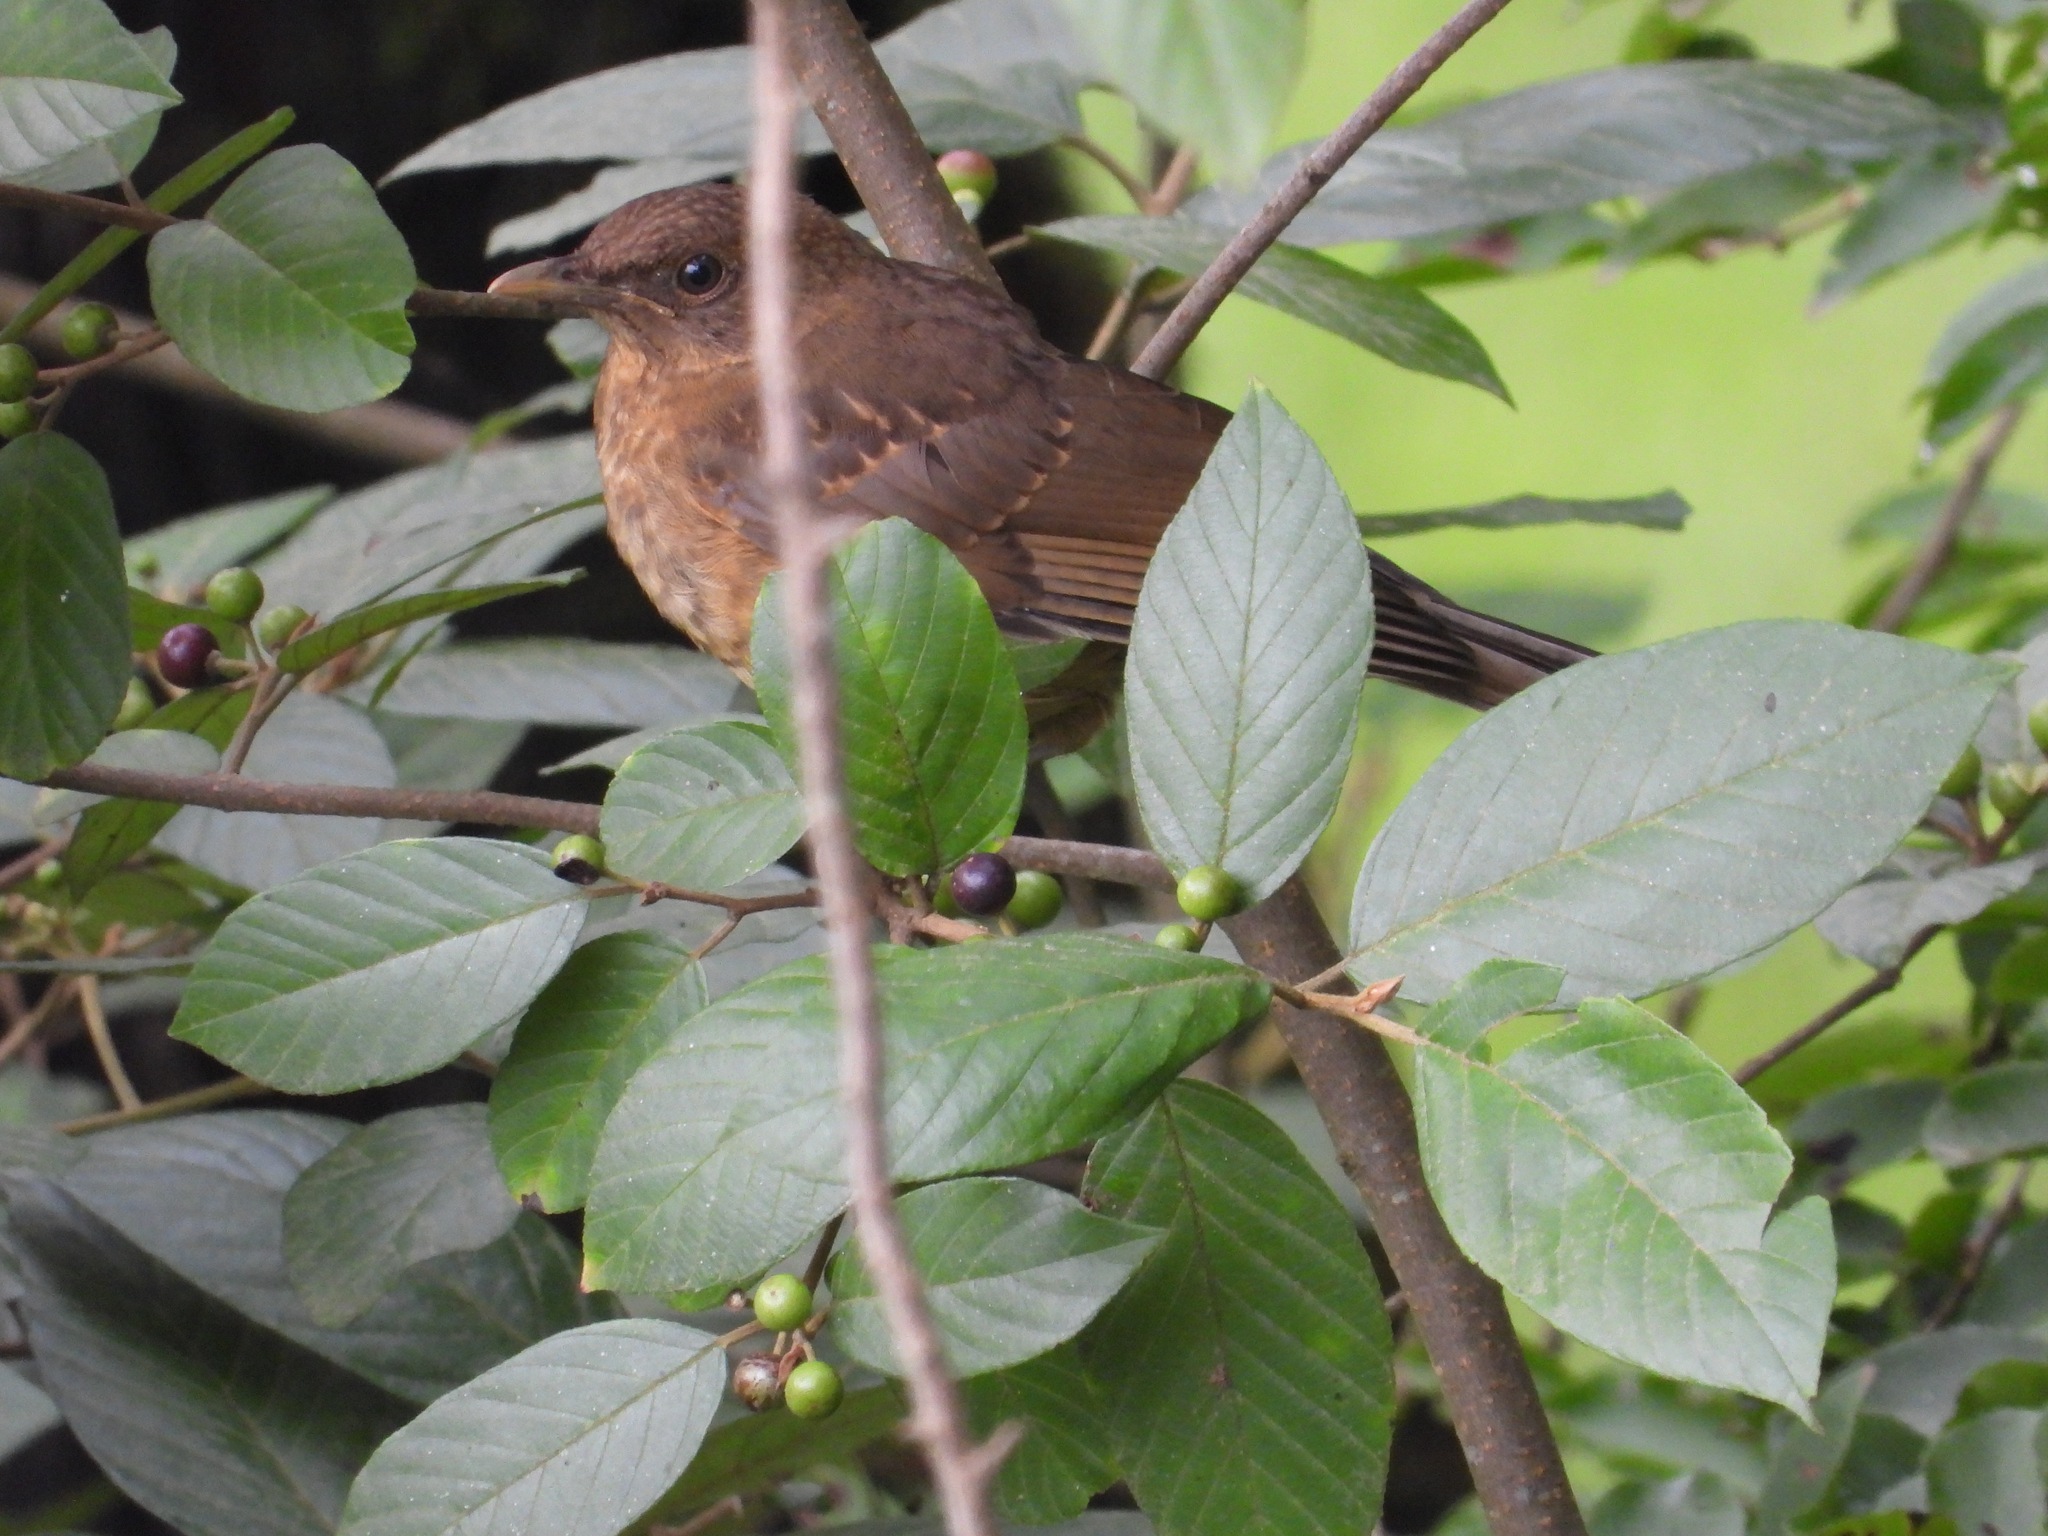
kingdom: Animalia
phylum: Chordata
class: Aves
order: Passeriformes
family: Turdidae
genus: Turdus
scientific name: Turdus grayi
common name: Clay-colored thrush
